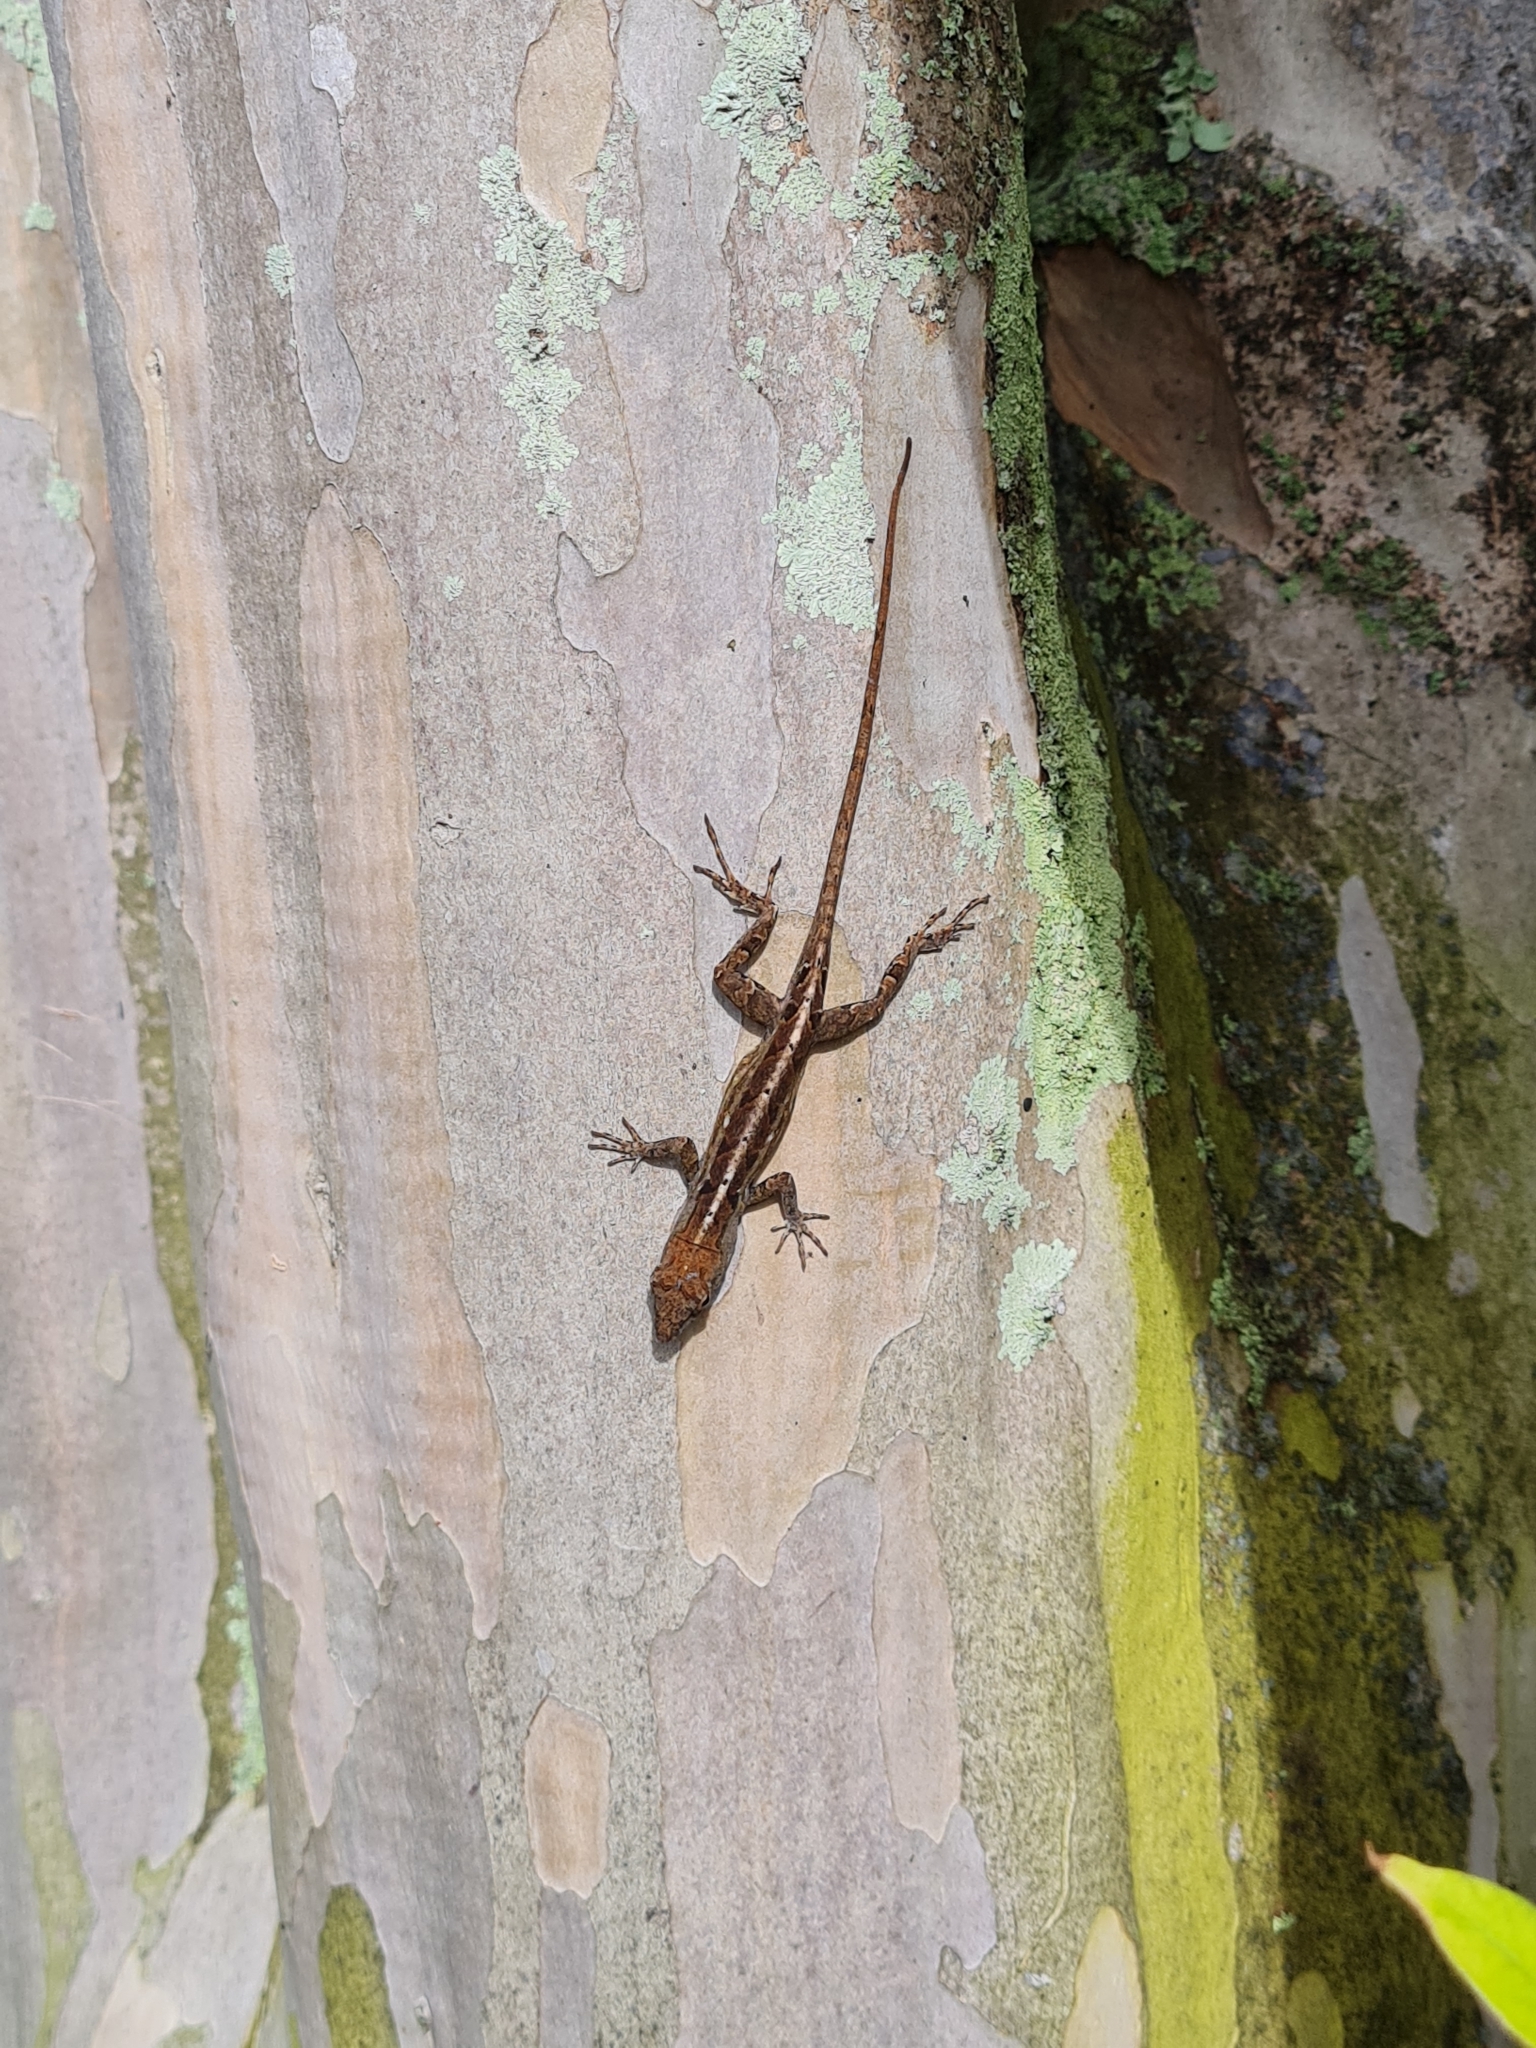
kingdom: Animalia
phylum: Chordata
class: Squamata
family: Dactyloidae
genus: Anolis
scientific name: Anolis sagrei
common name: Brown anole
